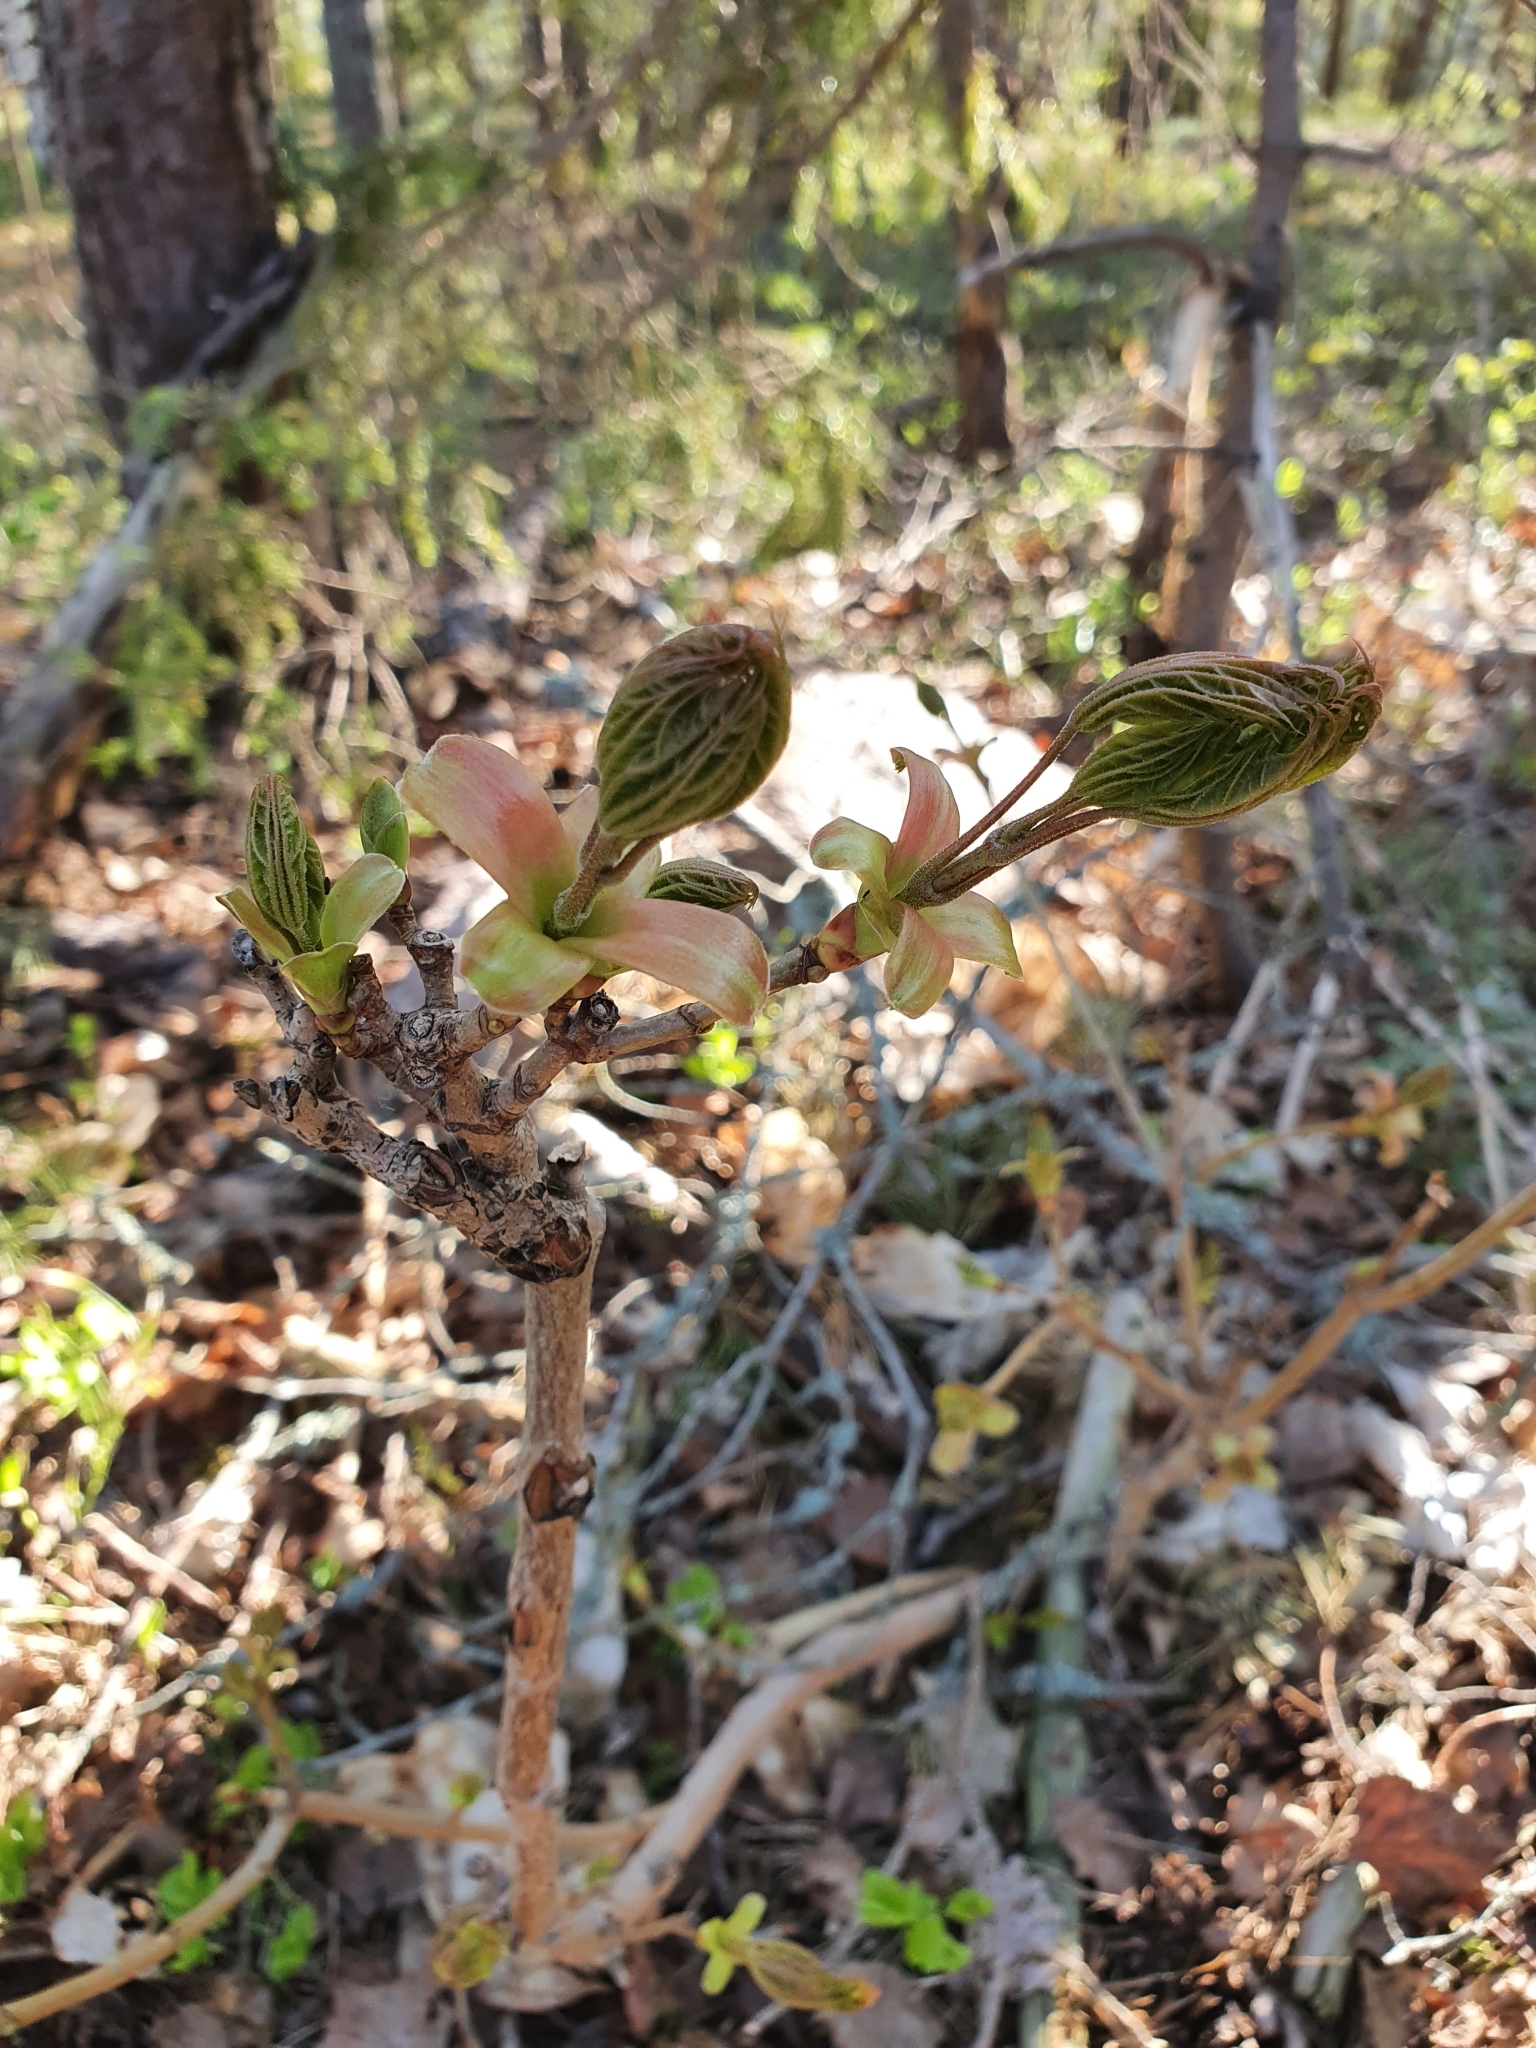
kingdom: Plantae
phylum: Tracheophyta
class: Magnoliopsida
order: Sapindales
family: Sapindaceae
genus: Acer
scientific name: Acer platanoides
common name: Norway maple
